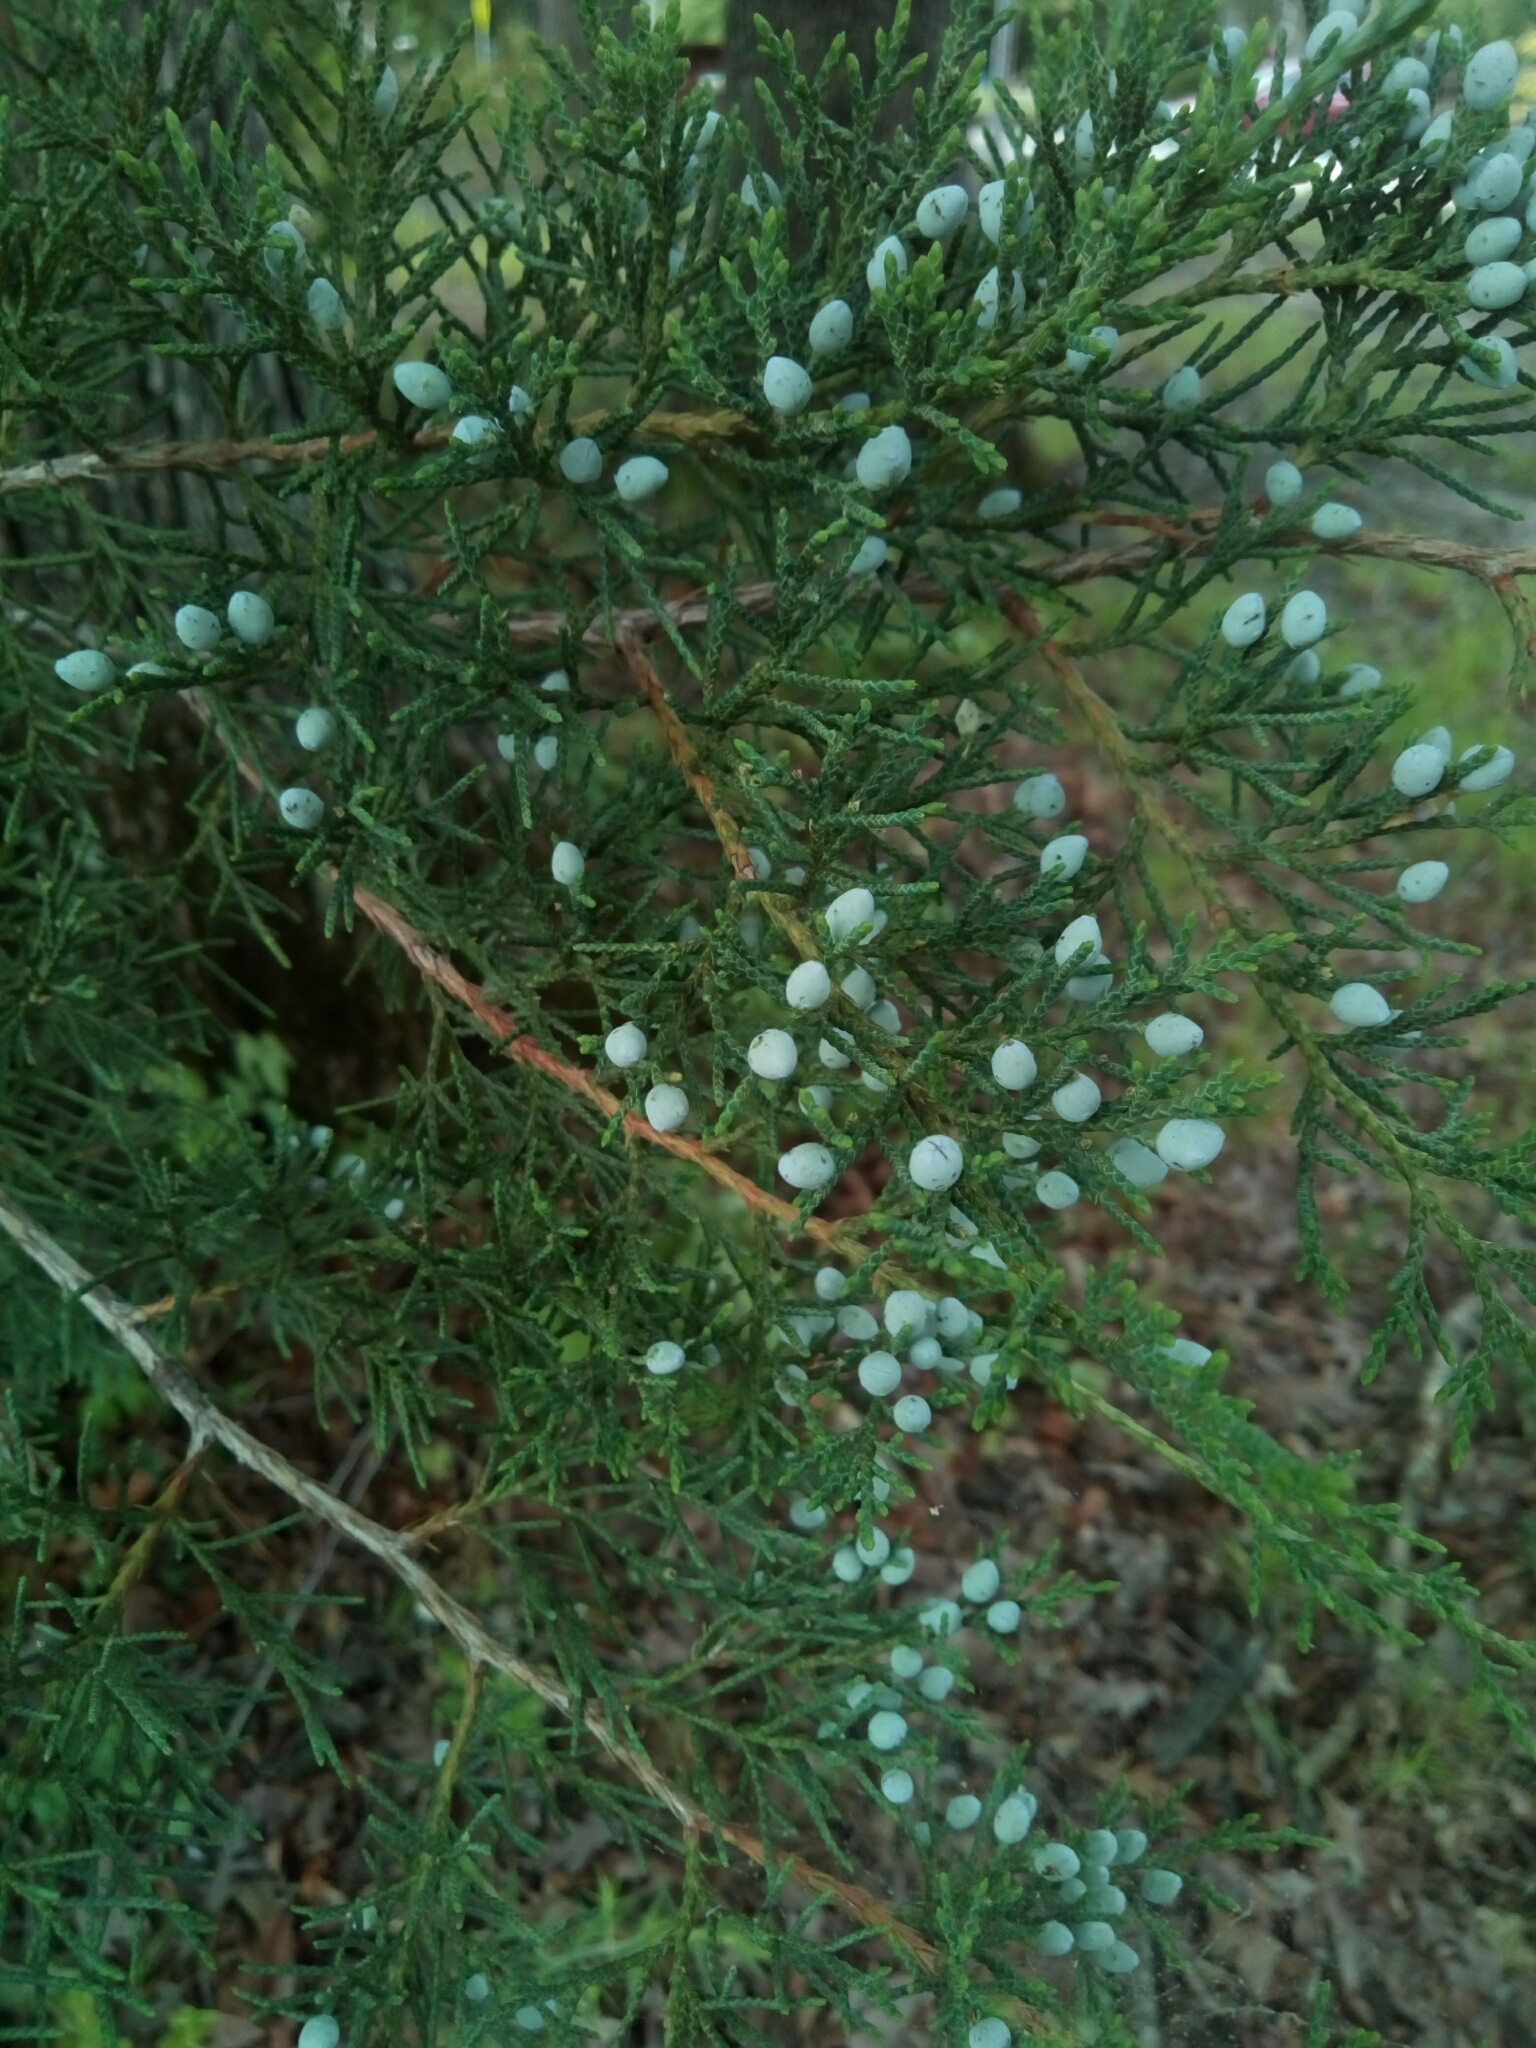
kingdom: Plantae
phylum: Tracheophyta
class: Pinopsida
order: Pinales
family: Cupressaceae
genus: Juniperus
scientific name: Juniperus virginiana
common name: Red juniper
